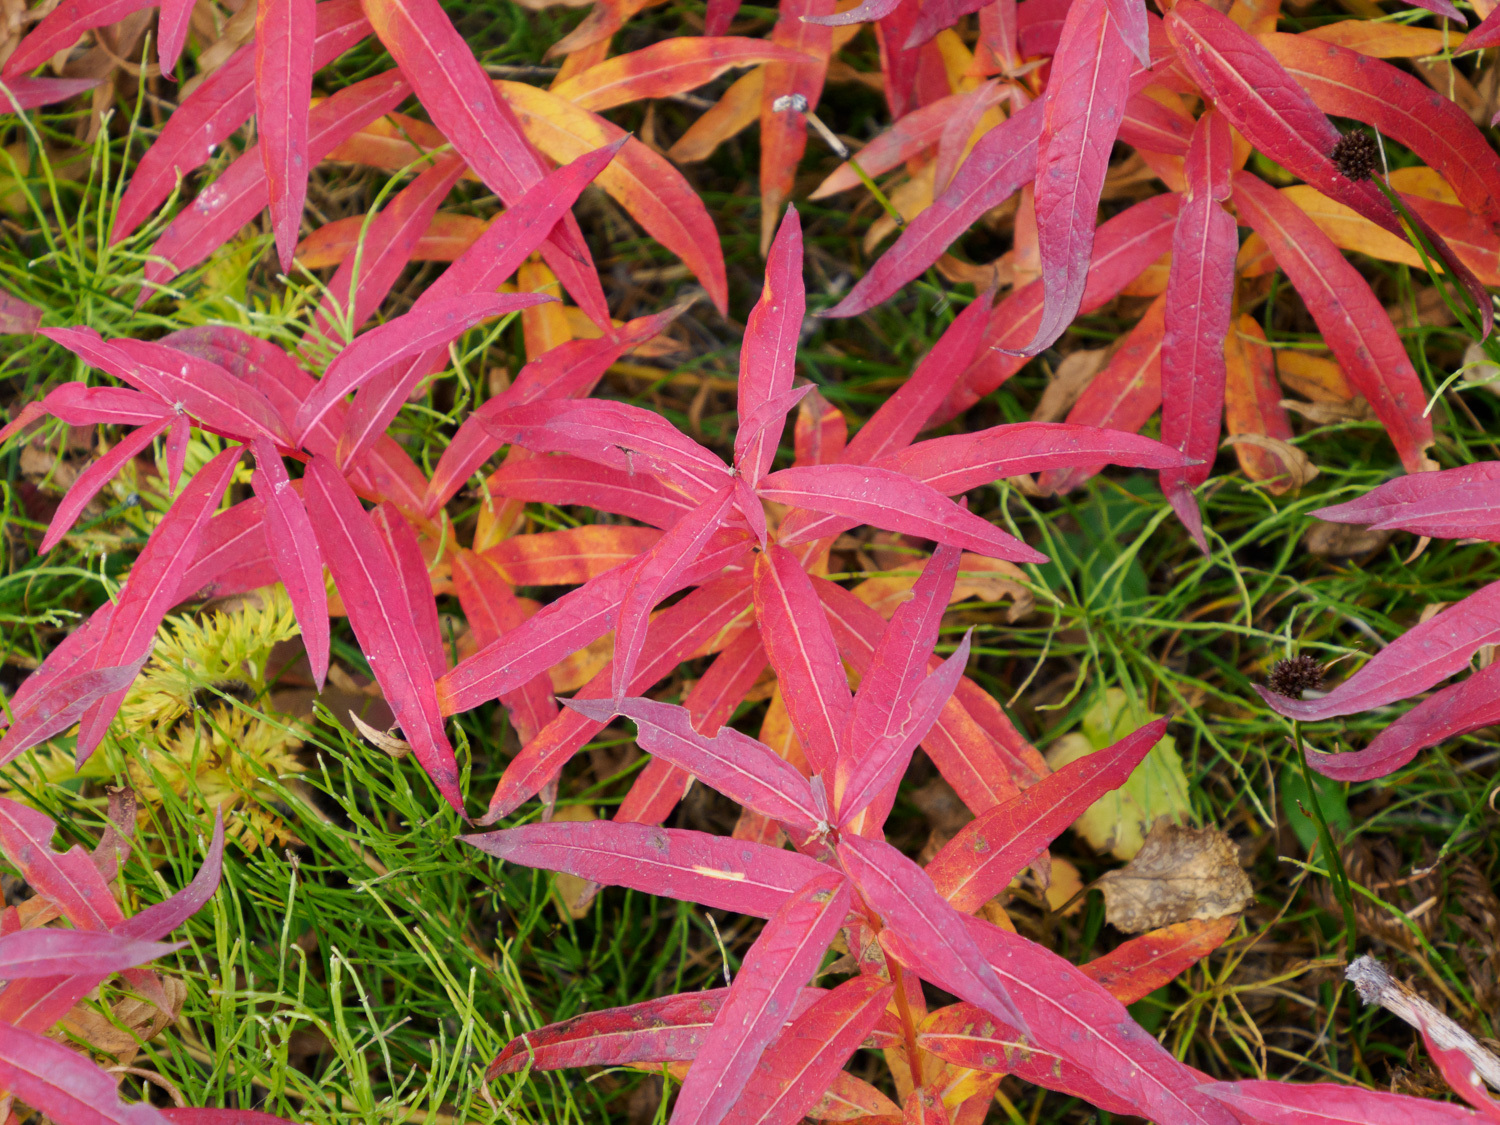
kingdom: Plantae
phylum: Tracheophyta
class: Magnoliopsida
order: Myrtales
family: Onagraceae
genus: Chamaenerion
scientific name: Chamaenerion angustifolium
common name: Fireweed
